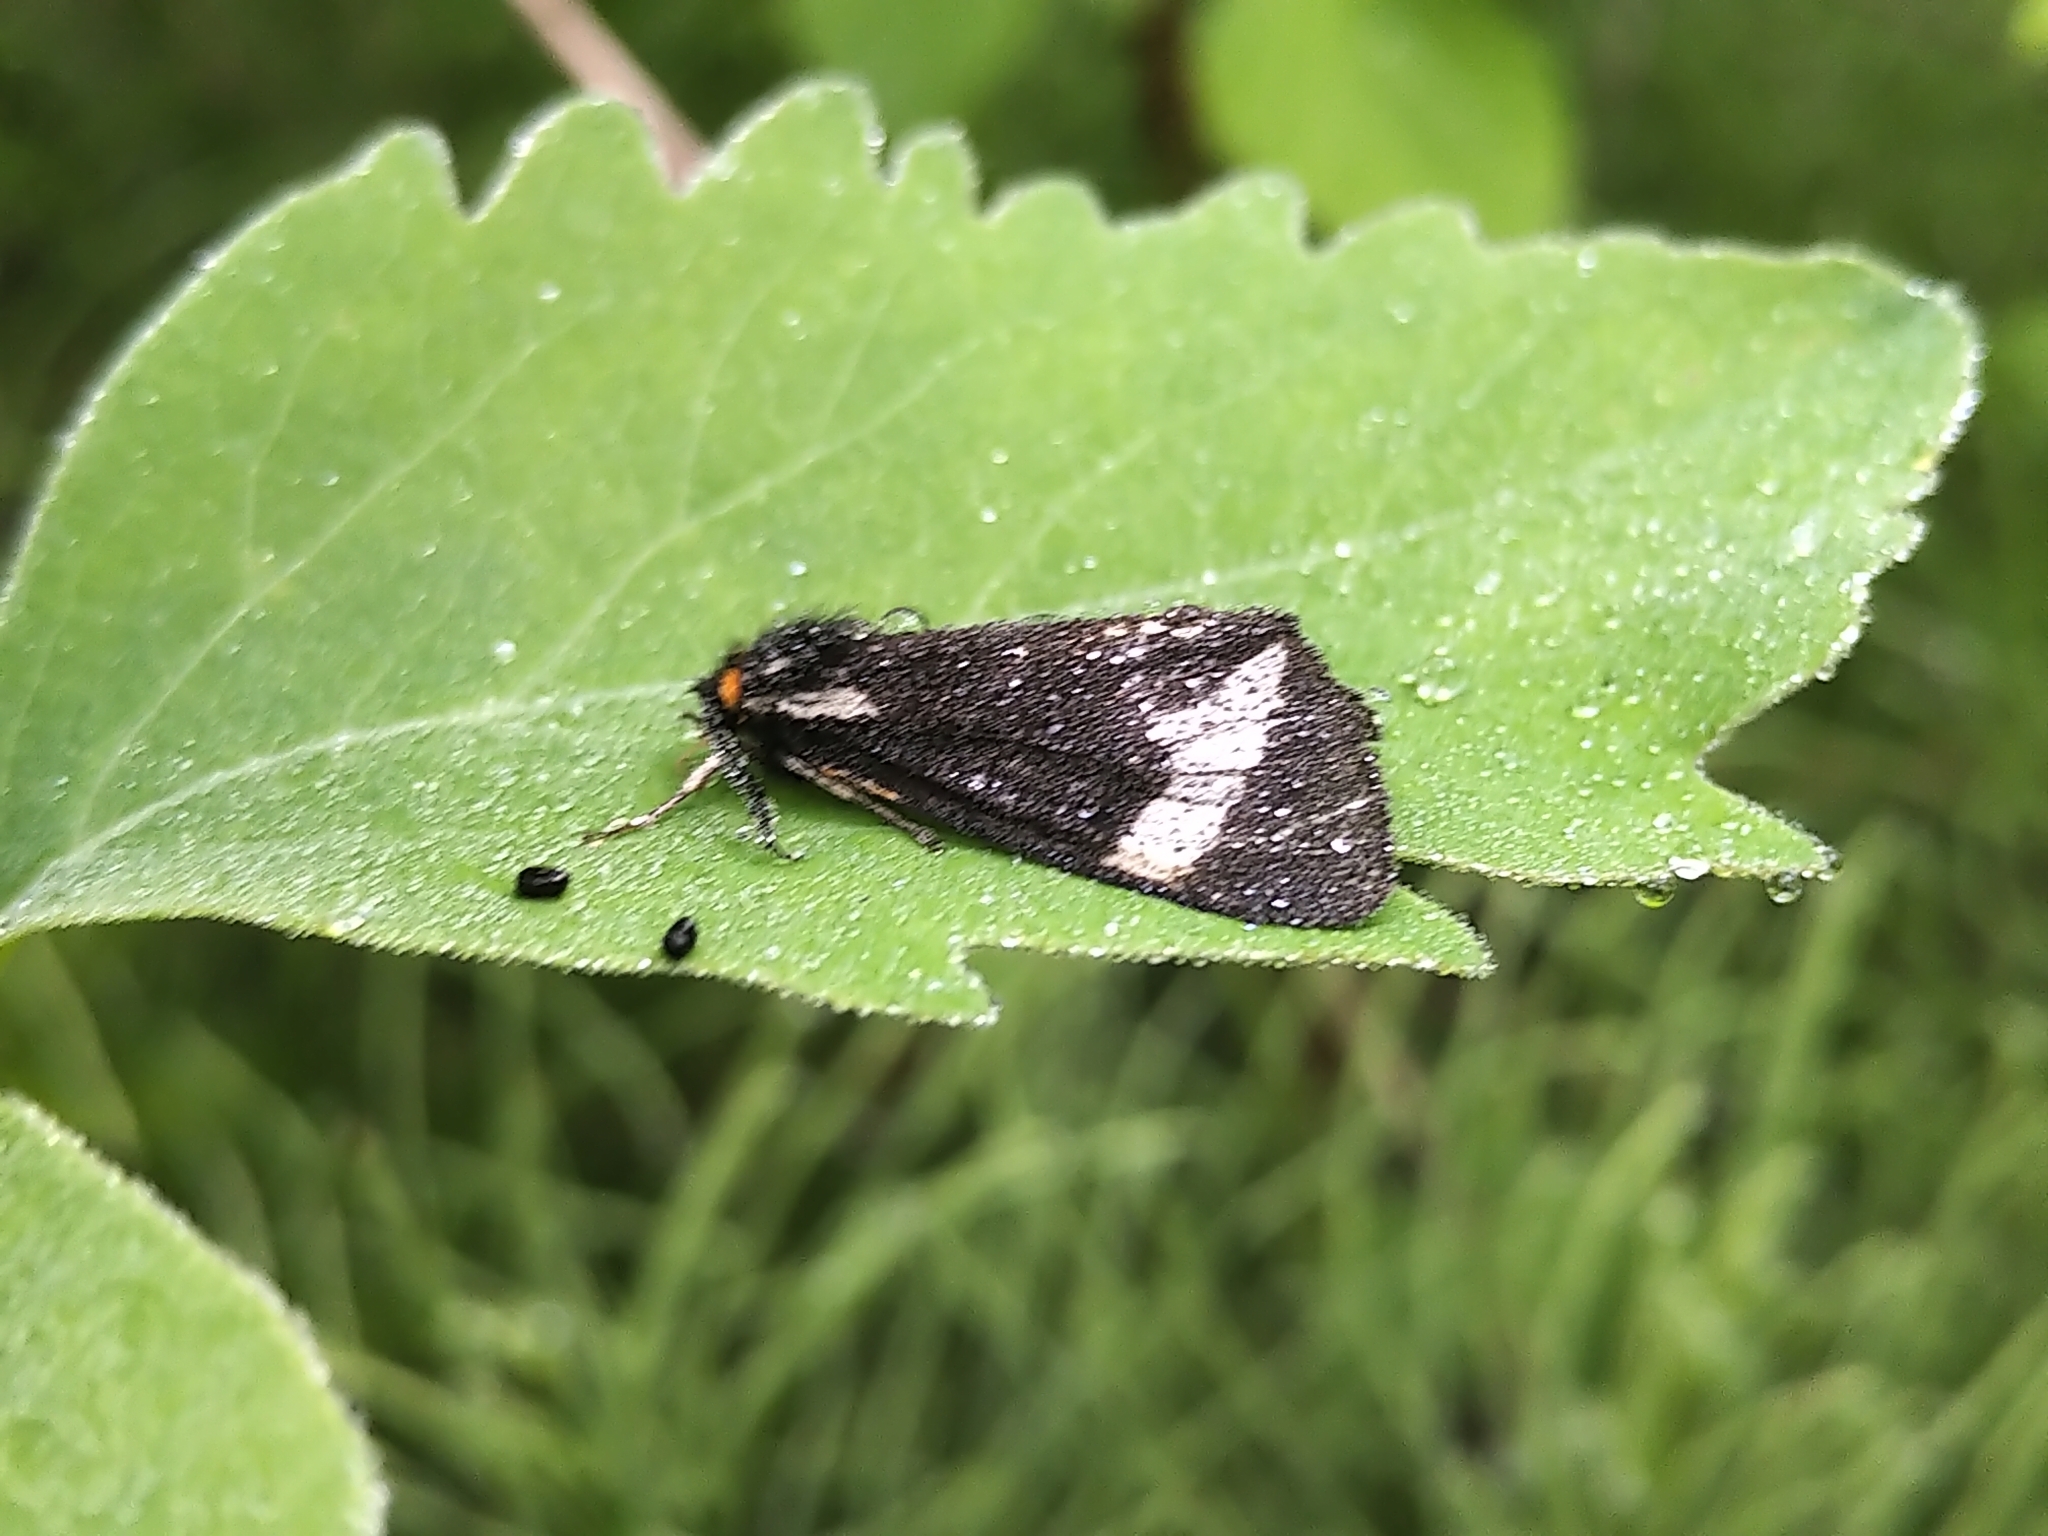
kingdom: Animalia
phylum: Arthropoda
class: Insecta
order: Lepidoptera
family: Erebidae
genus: Parasemia
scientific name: Parasemia plantaginis
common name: Wood tiger
